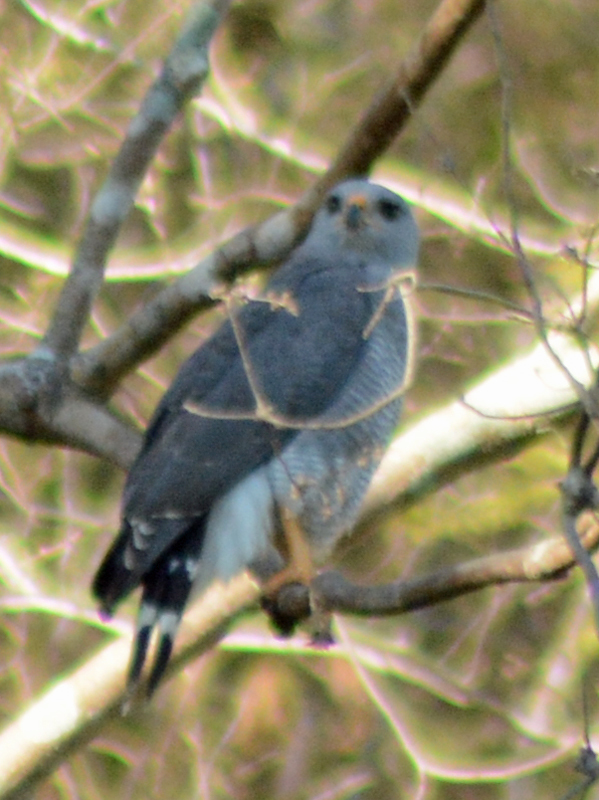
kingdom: Animalia
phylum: Chordata
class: Aves
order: Accipitriformes
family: Accipitridae
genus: Buteo
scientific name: Buteo nitidus
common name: Grey-lined hawk
